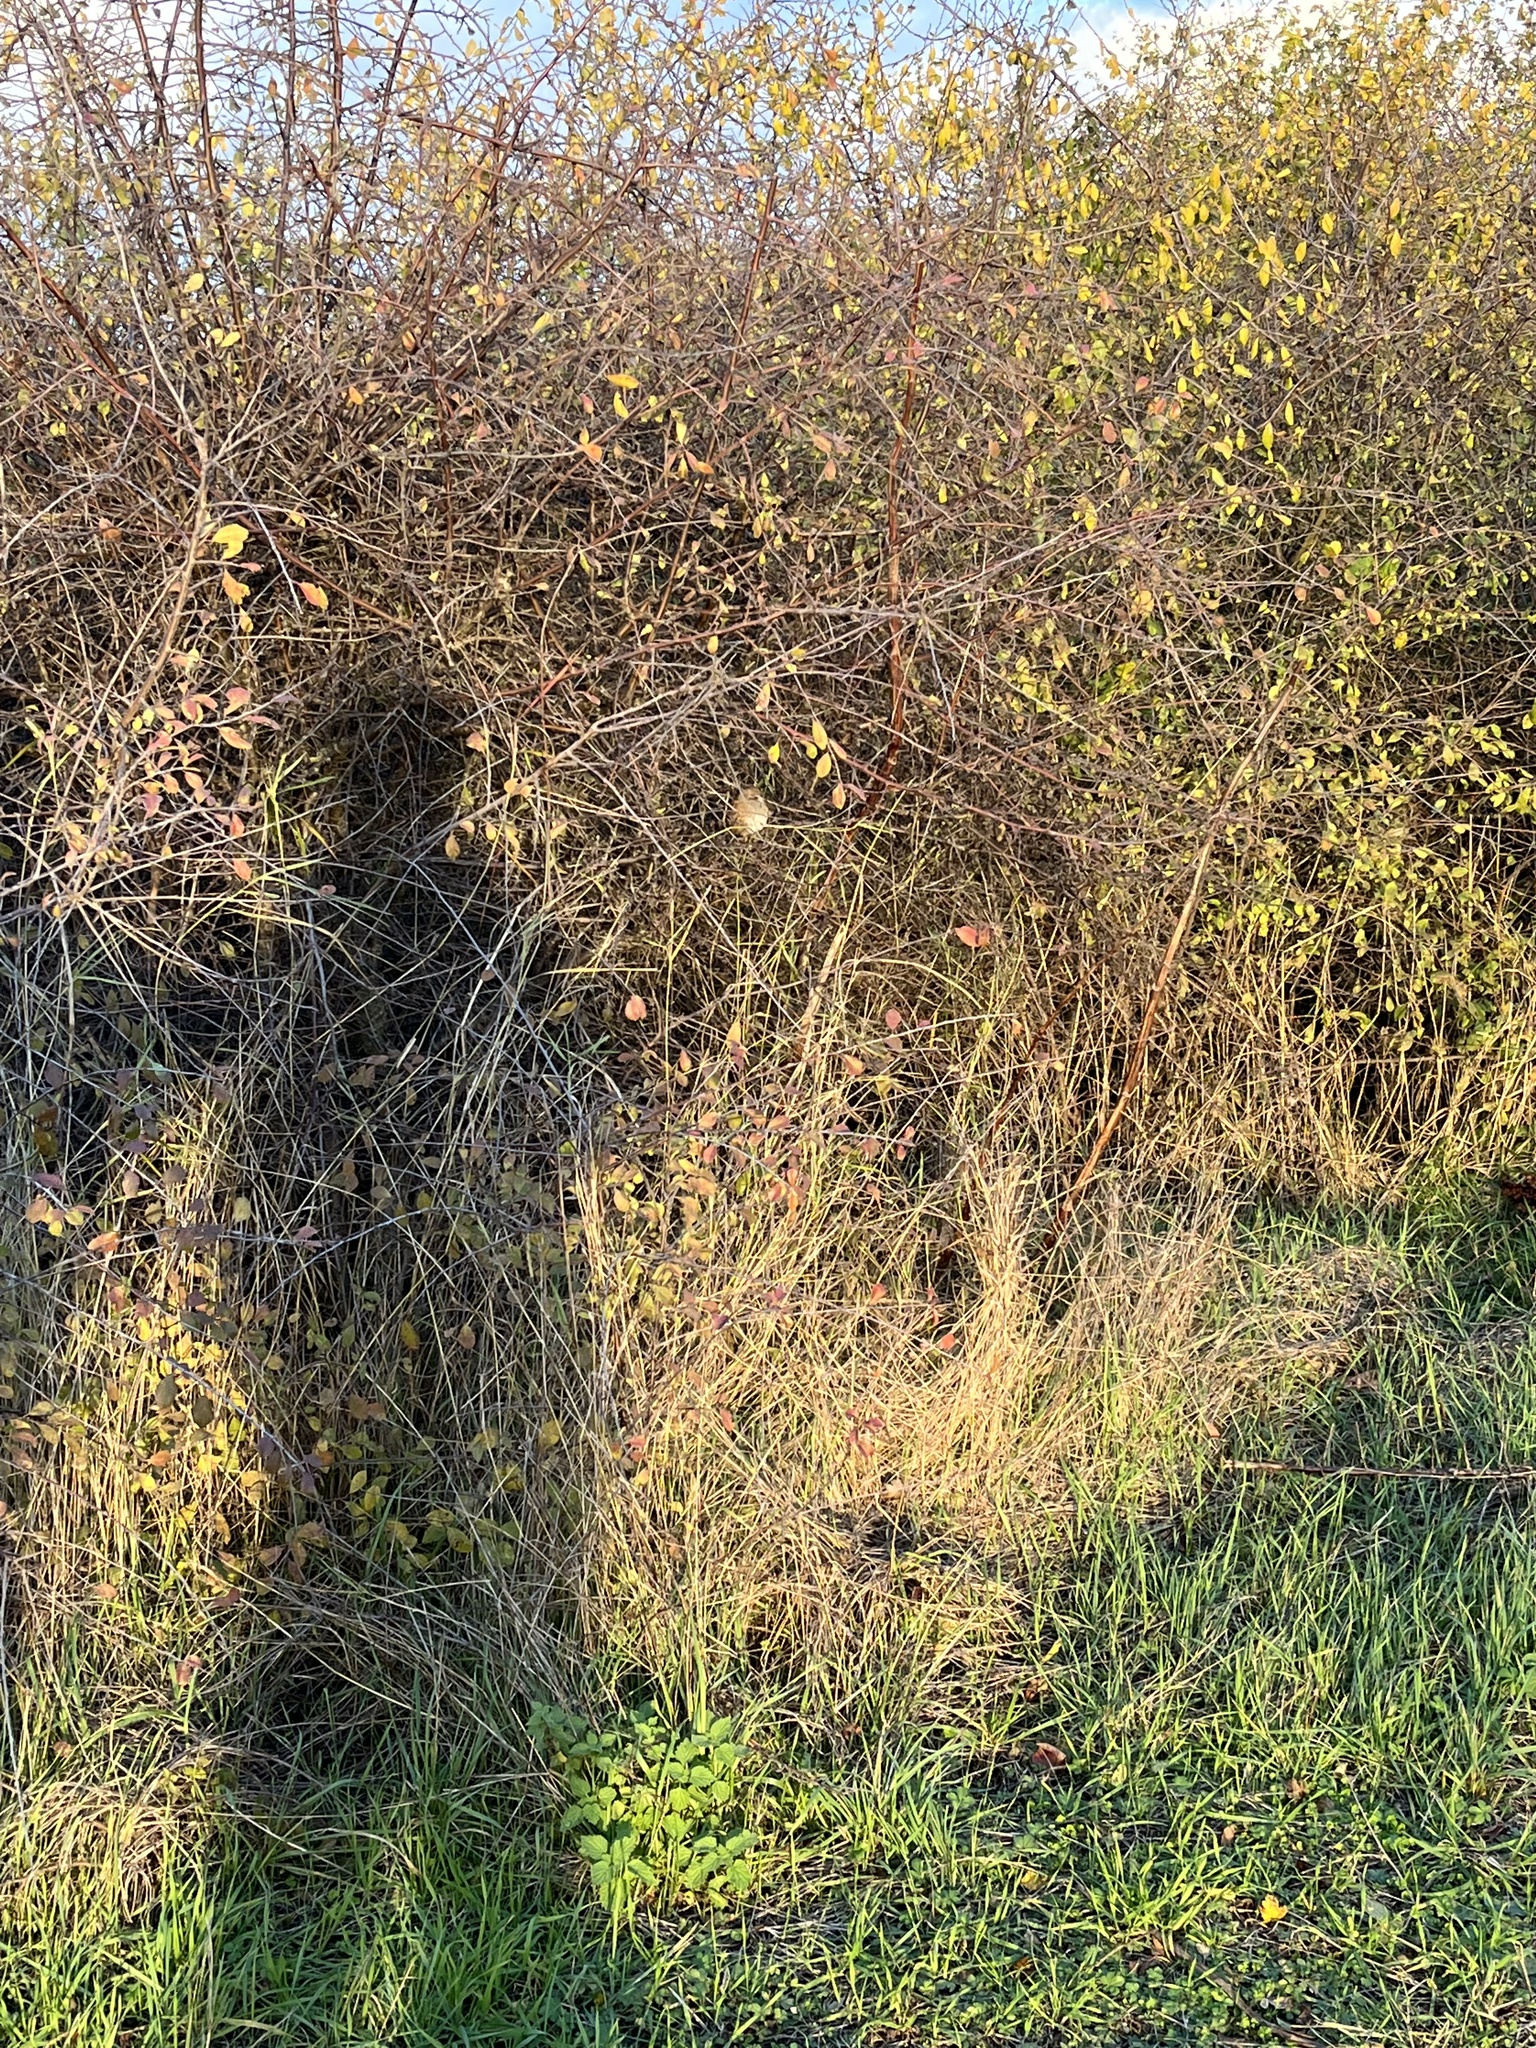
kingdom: Animalia
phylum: Chordata
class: Aves
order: Passeriformes
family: Prunellidae
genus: Prunella
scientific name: Prunella modularis
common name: Dunnock
